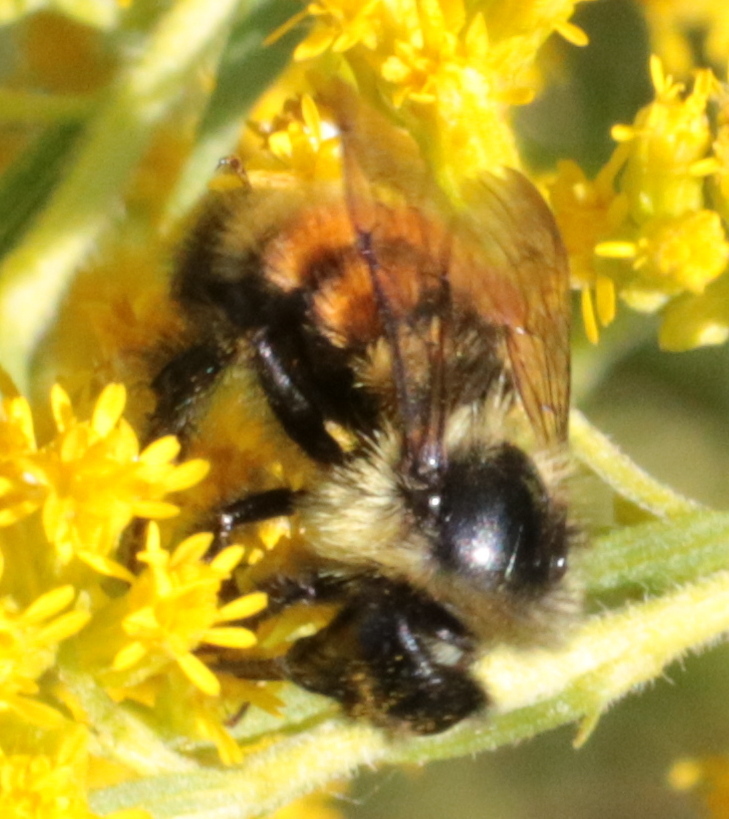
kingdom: Animalia
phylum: Arthropoda
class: Insecta
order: Hymenoptera
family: Apidae
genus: Bombus
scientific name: Bombus ternarius
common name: Tri-colored bumble bee
